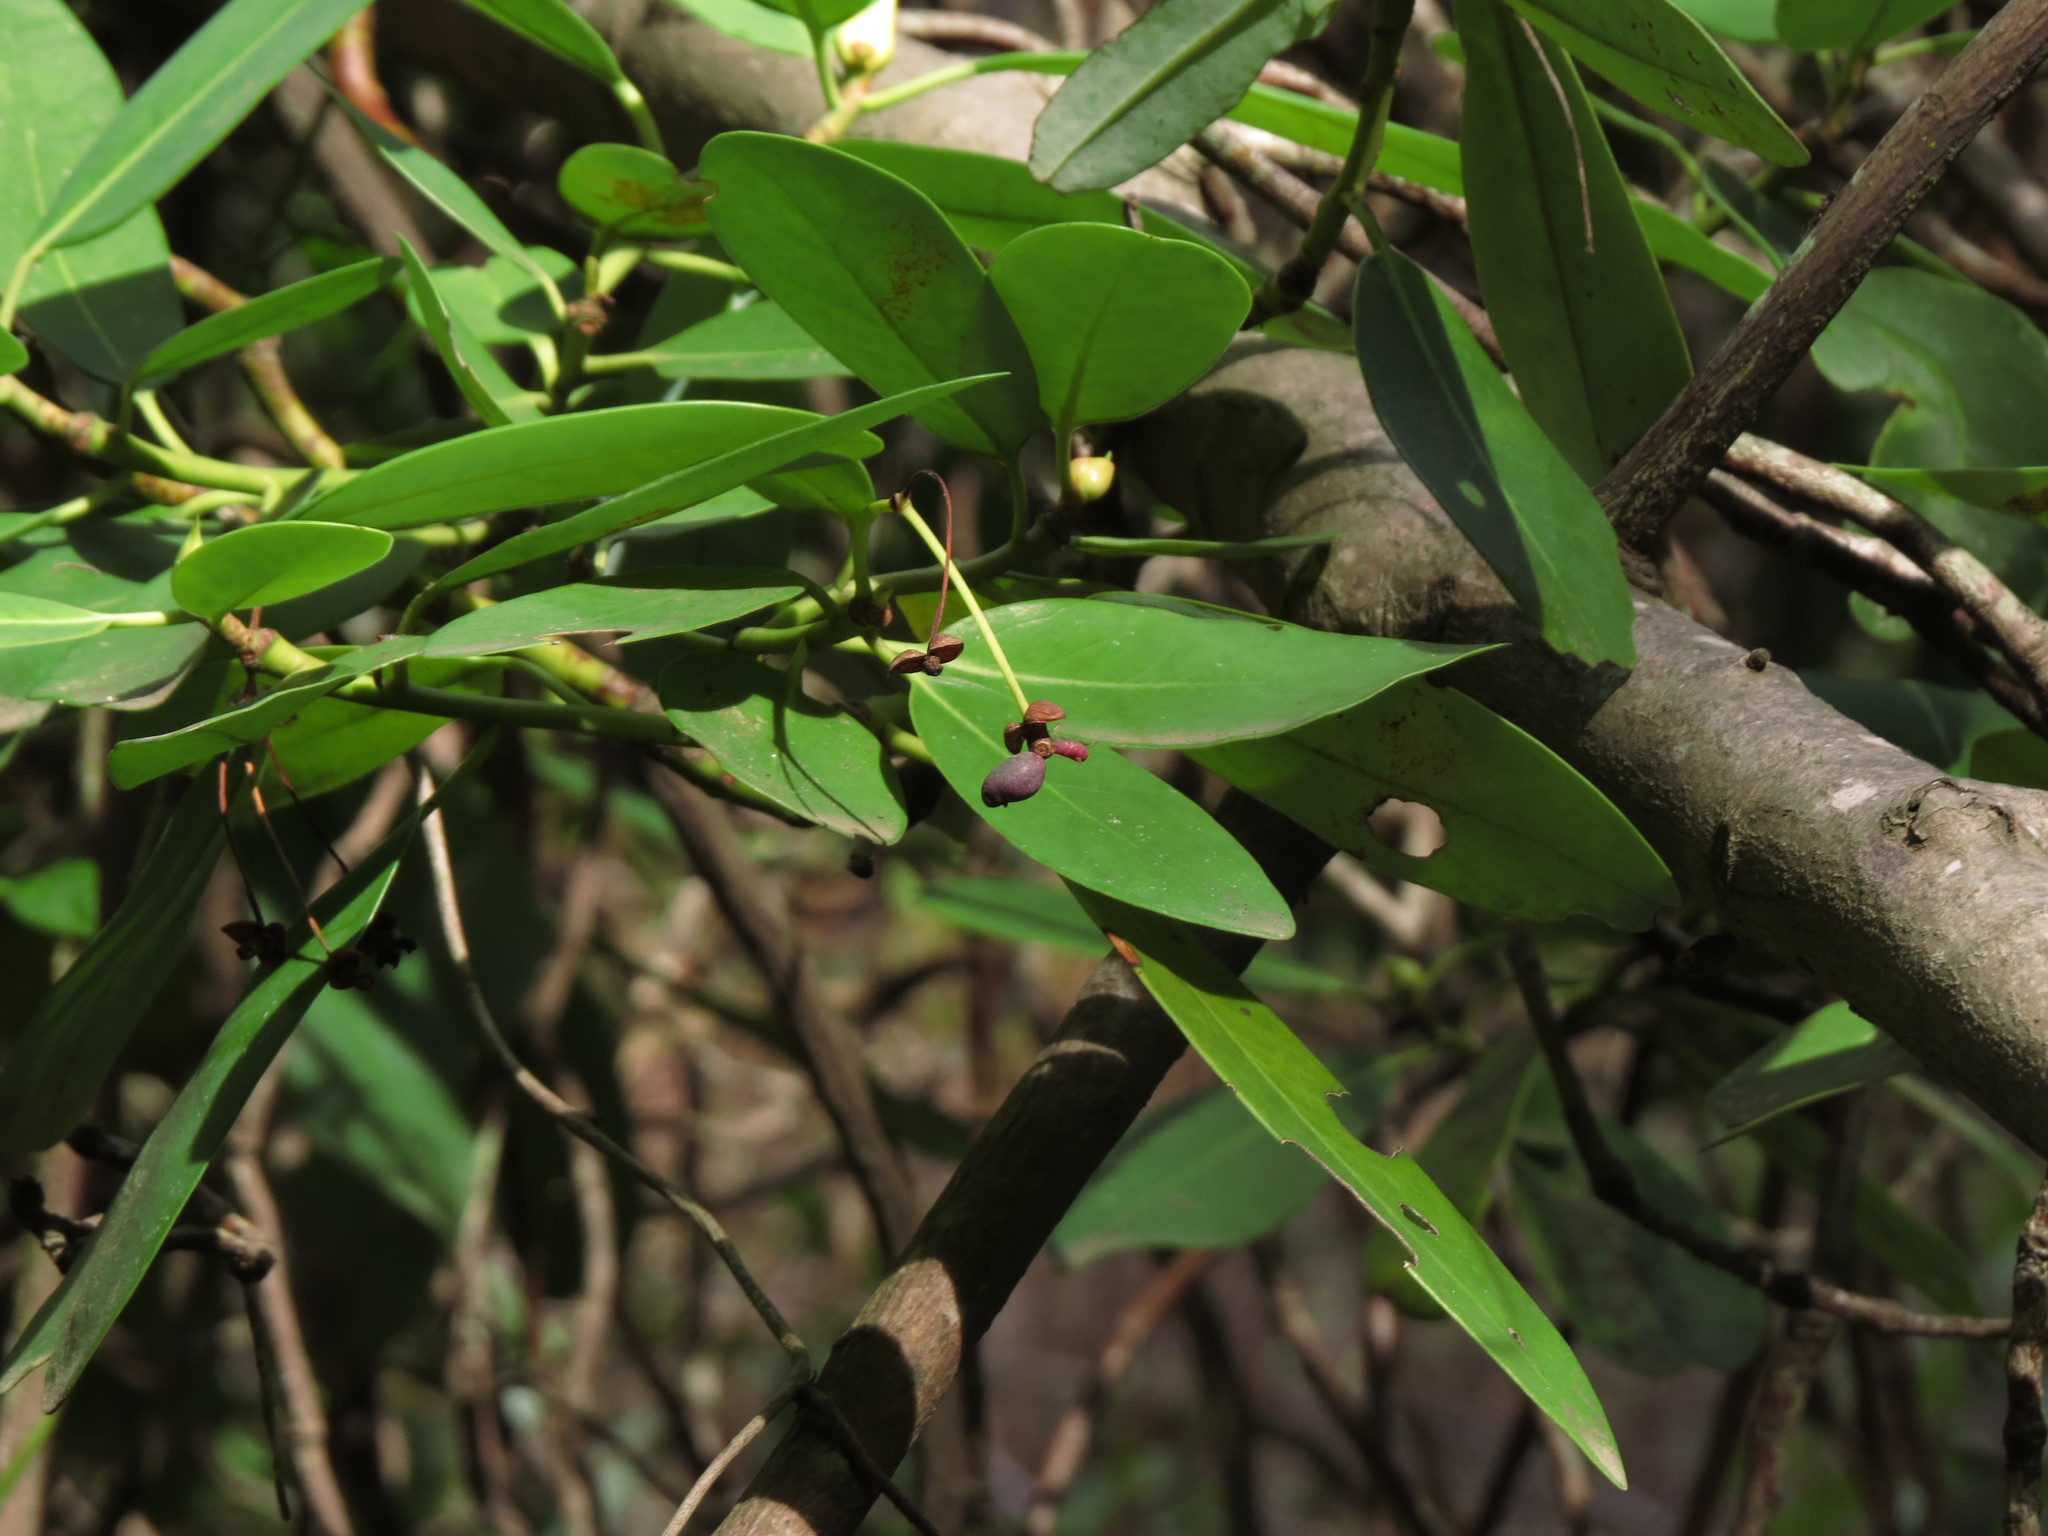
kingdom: Plantae
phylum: Tracheophyta
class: Magnoliopsida
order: Canellales
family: Winteraceae
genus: Drimys
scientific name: Drimys winteri
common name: Winter's-bark
